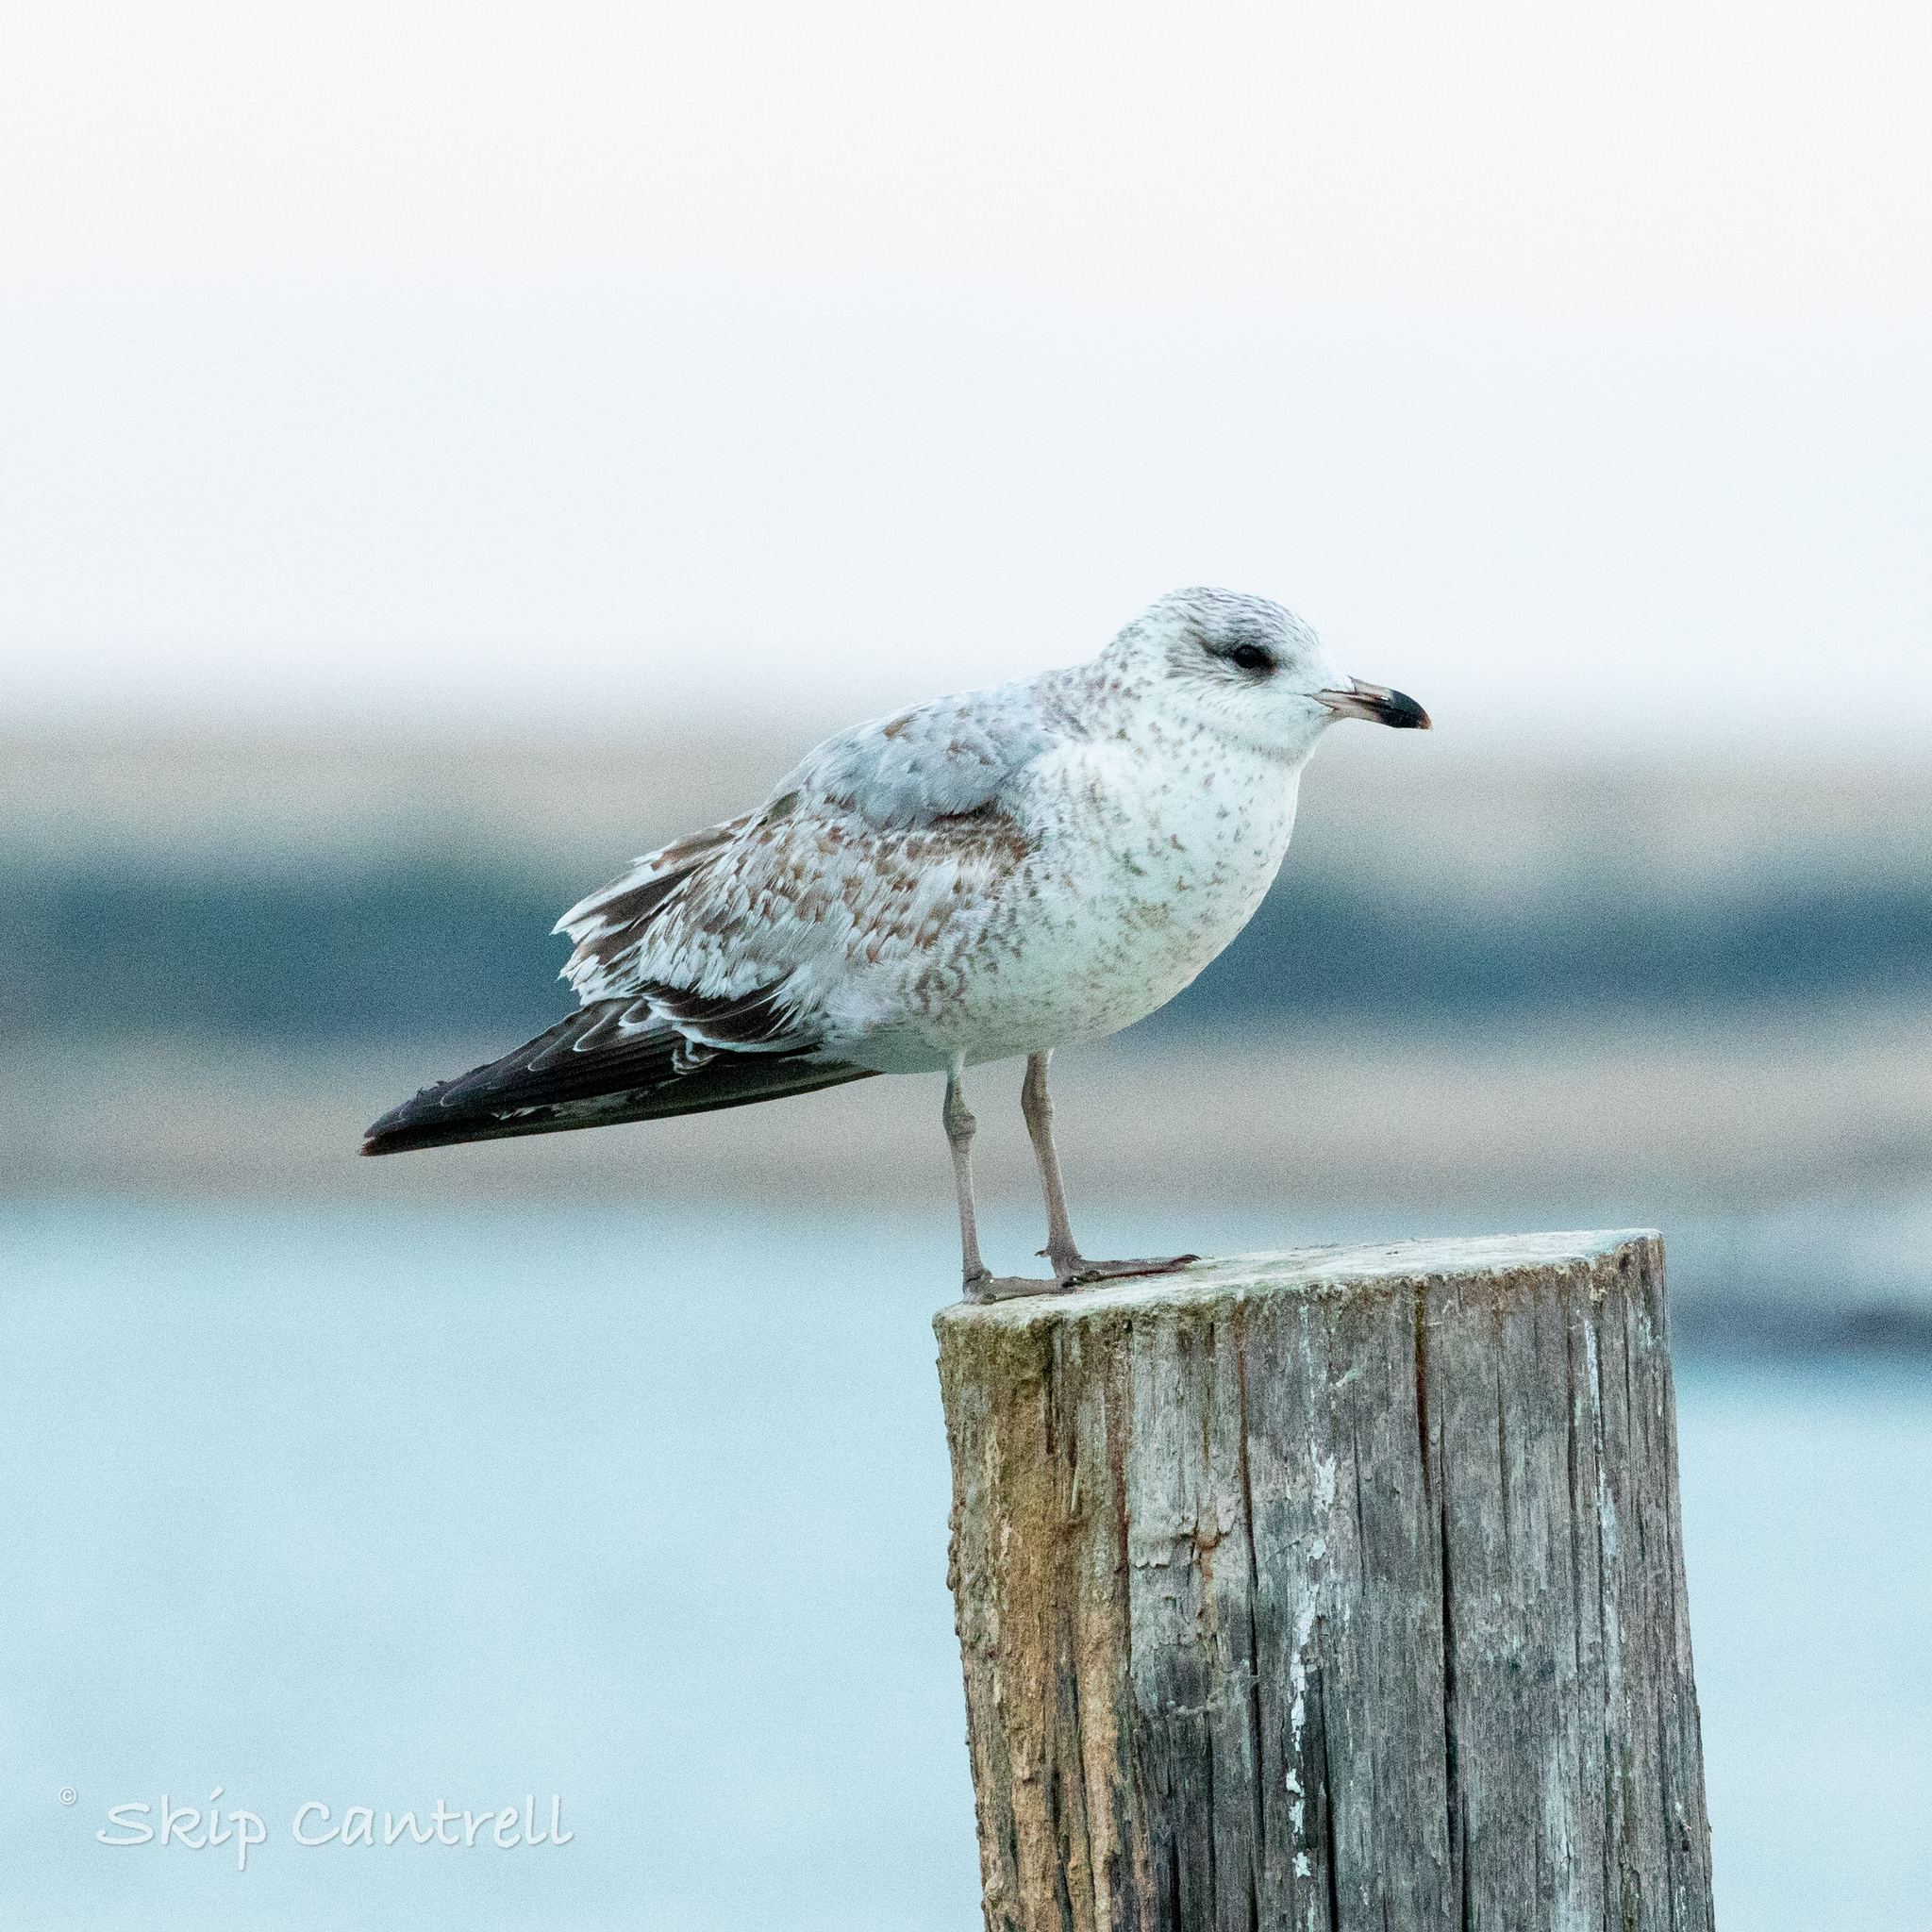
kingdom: Animalia
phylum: Chordata
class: Aves
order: Charadriiformes
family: Laridae
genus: Larus
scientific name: Larus delawarensis
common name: Ring-billed gull
